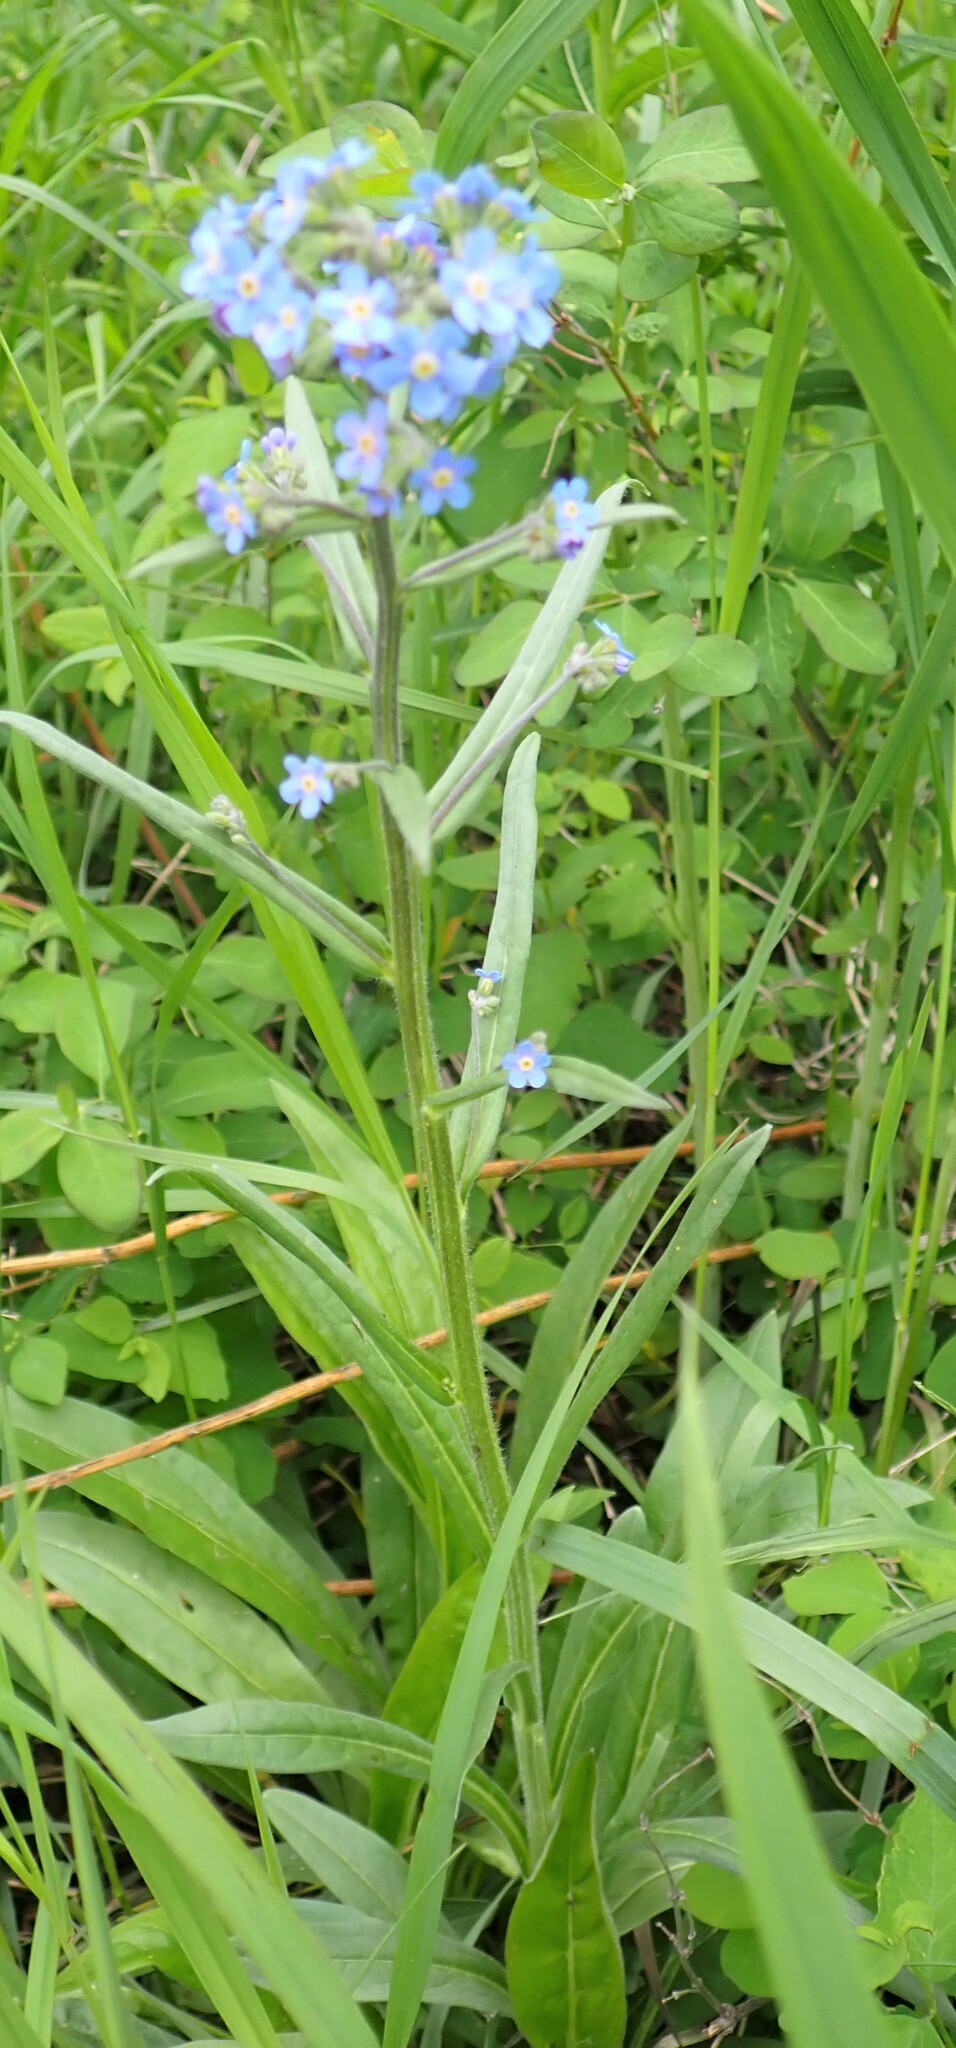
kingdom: Plantae
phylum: Tracheophyta
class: Magnoliopsida
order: Boraginales
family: Boraginaceae
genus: Hackelia
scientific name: Hackelia micrantha
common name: Meadow stickseed
